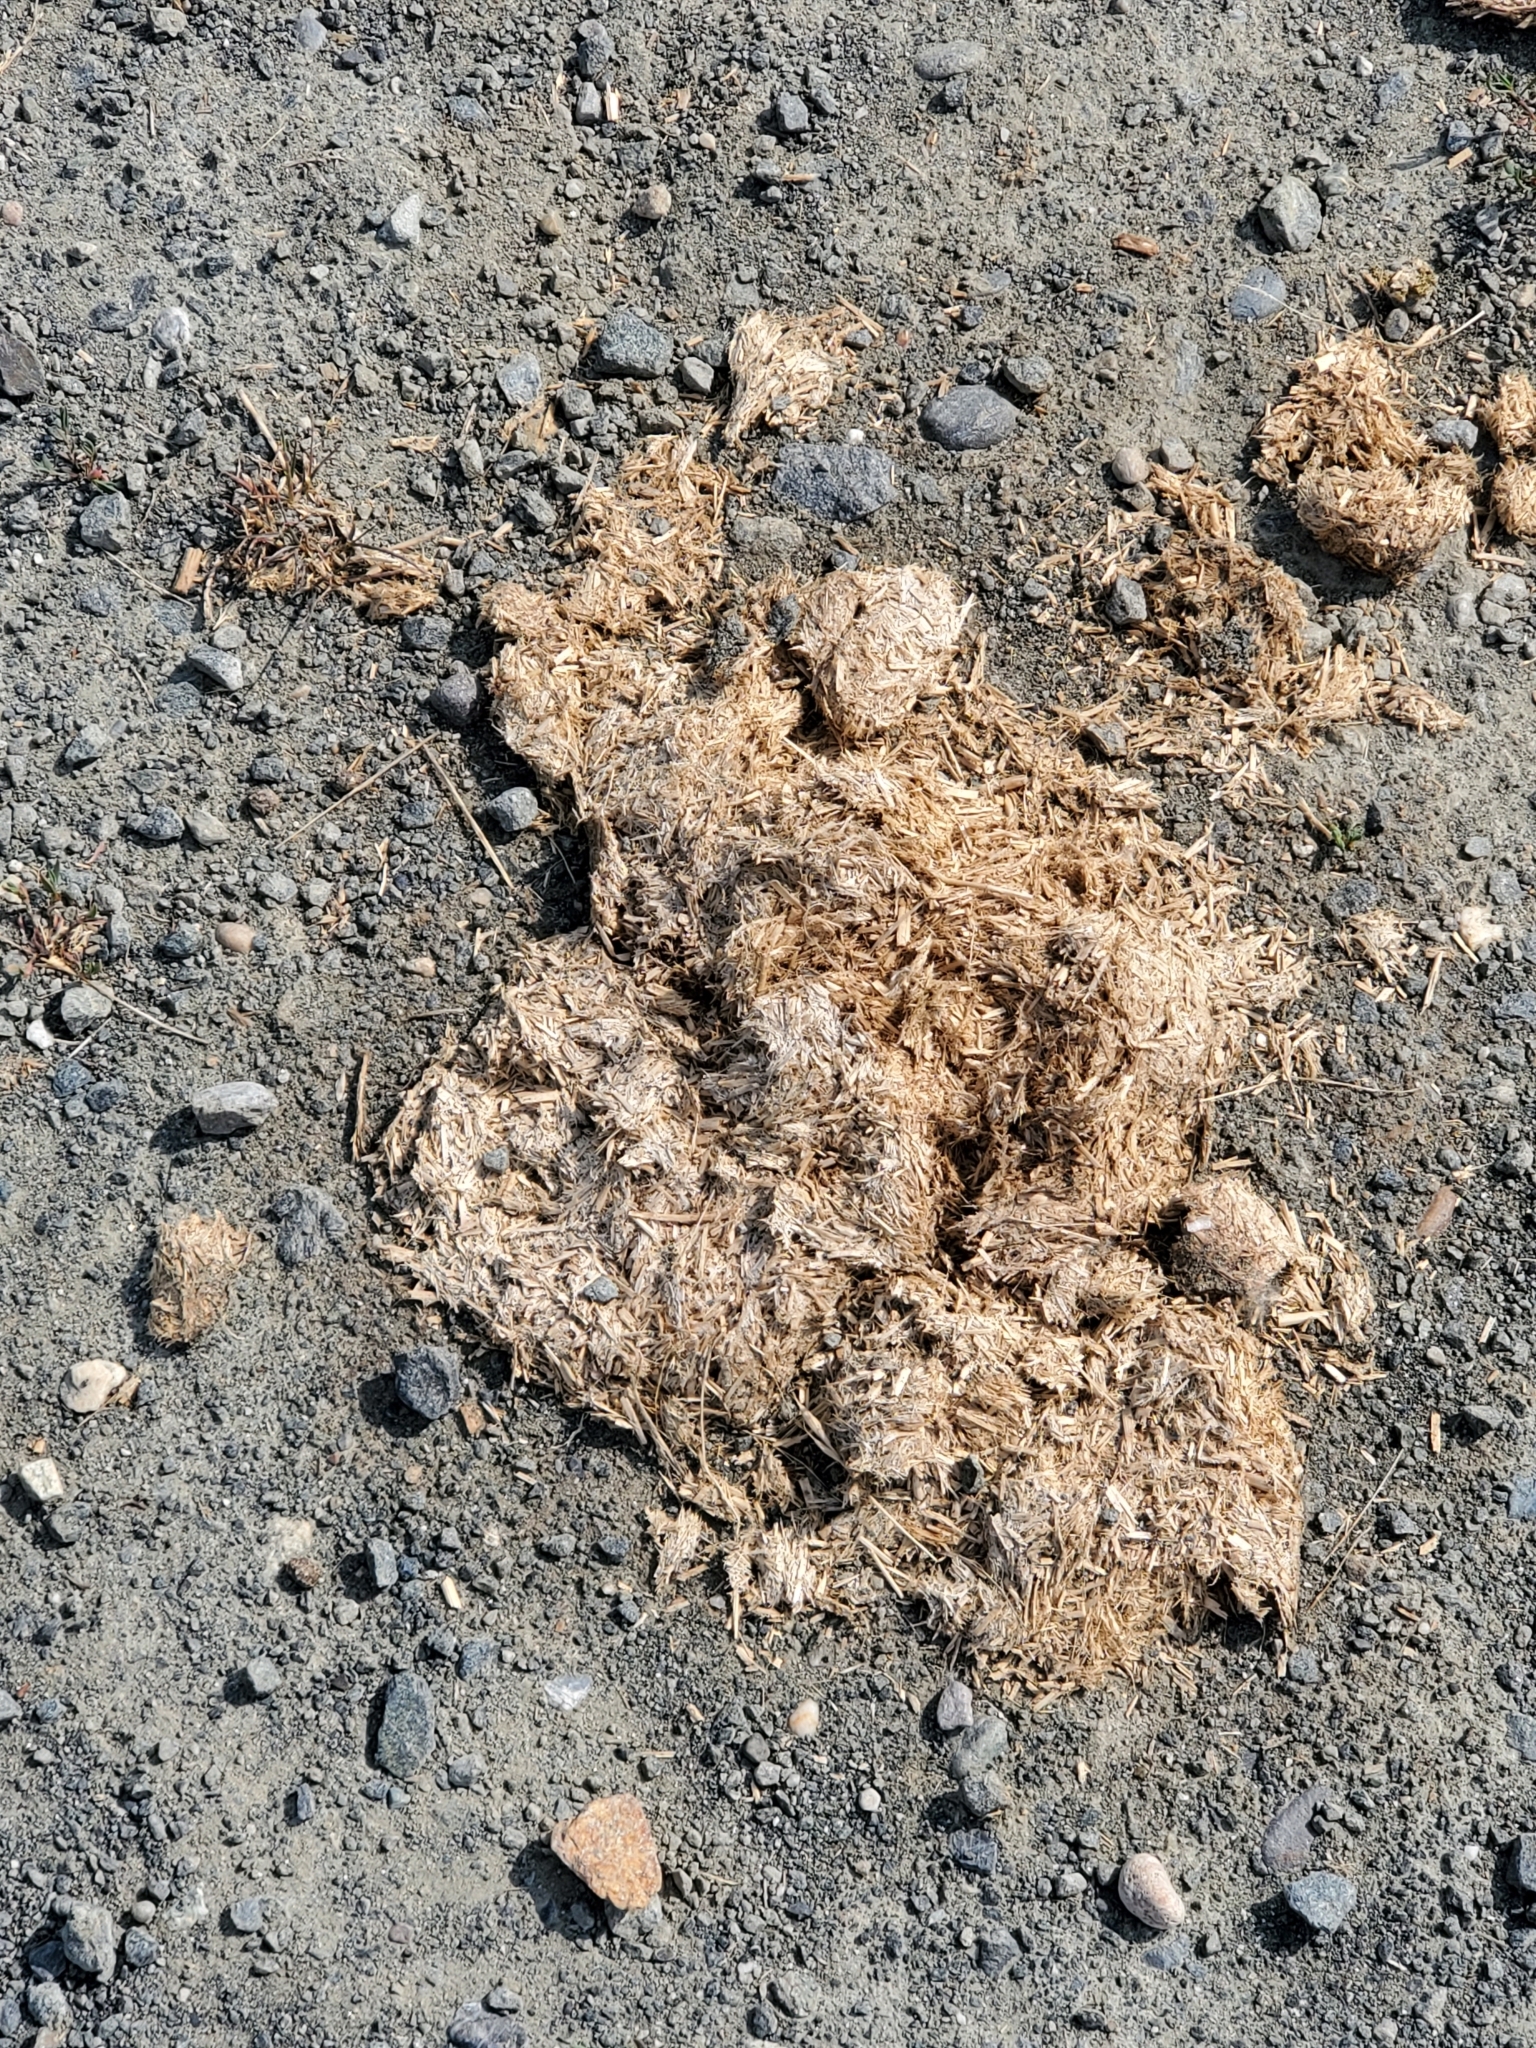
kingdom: Animalia
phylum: Chordata
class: Mammalia
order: Perissodactyla
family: Equidae
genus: Equus
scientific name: Equus caballus
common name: Horse
